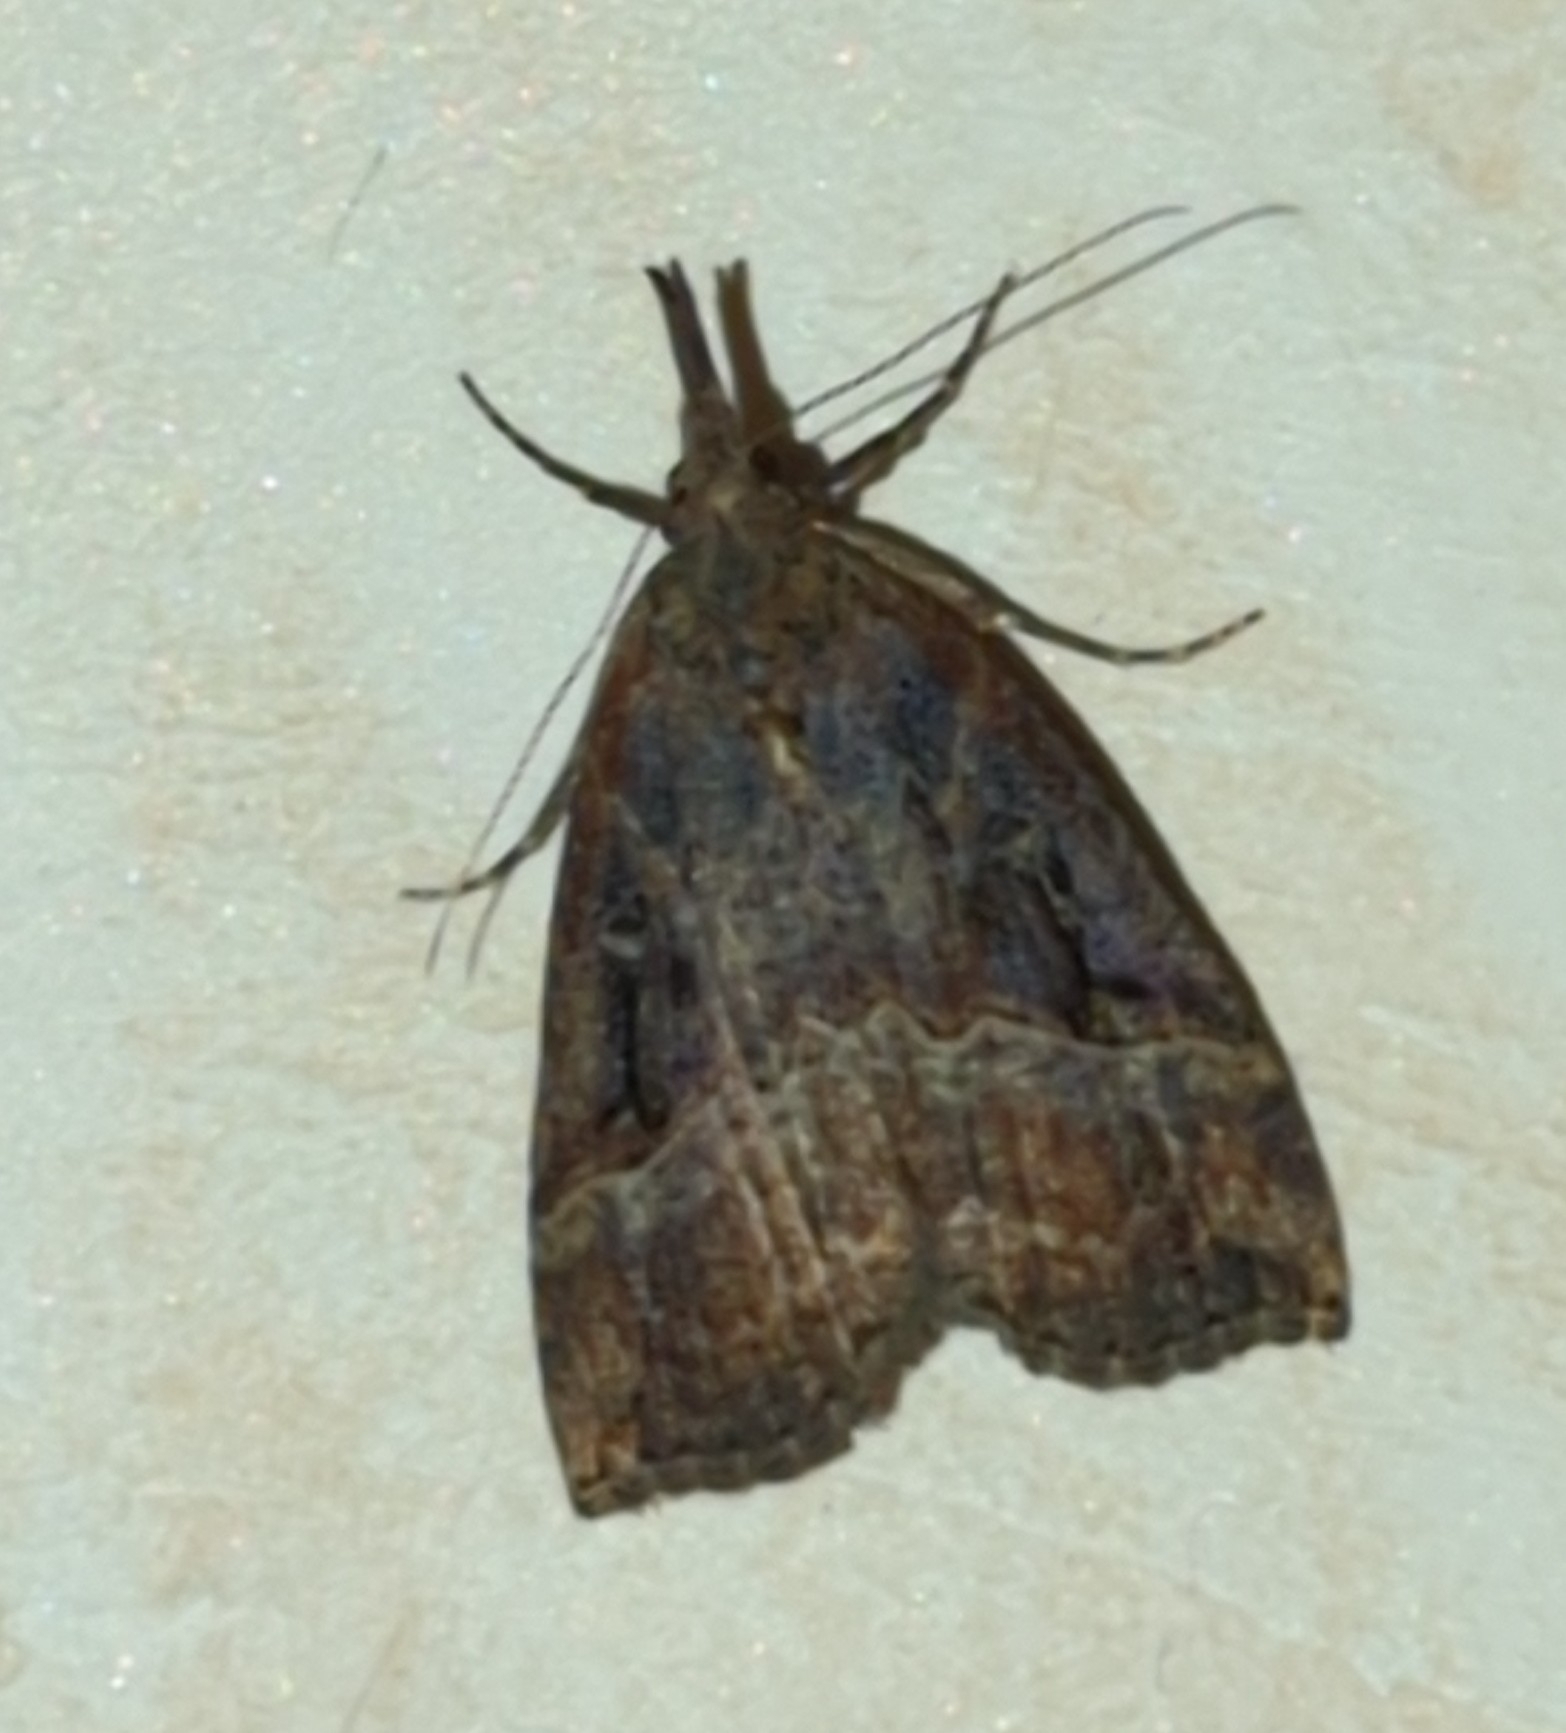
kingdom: Animalia
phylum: Arthropoda
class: Insecta
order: Lepidoptera
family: Erebidae
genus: Hypena
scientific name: Hypena rostralis
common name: Buttoned snout
